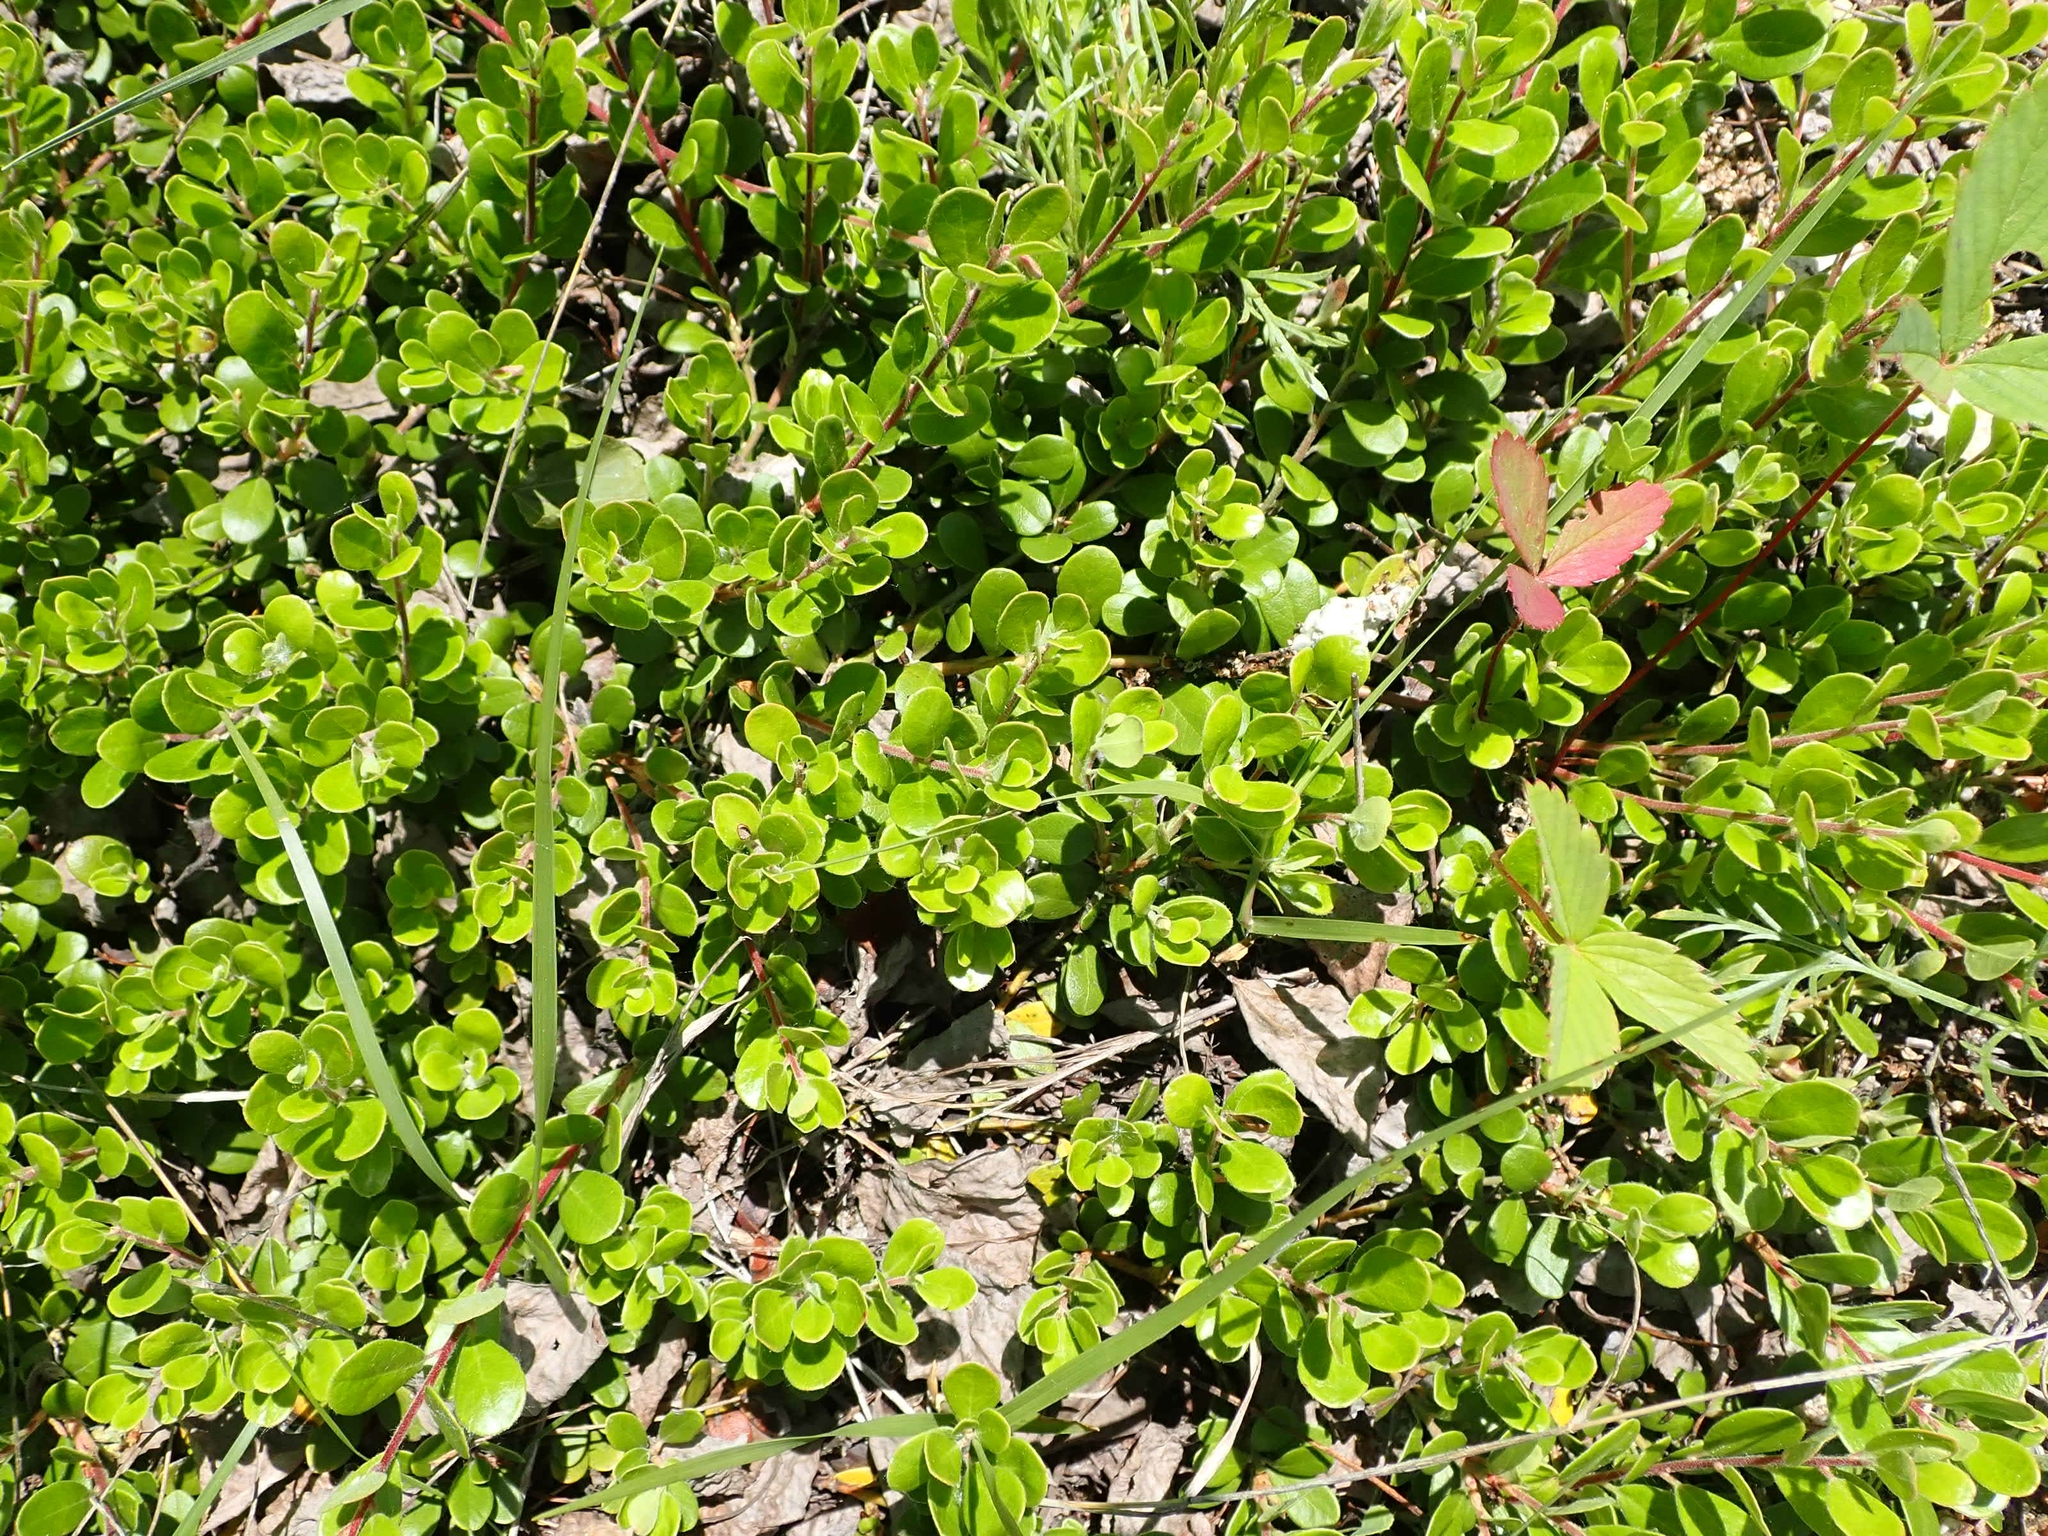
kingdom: Plantae
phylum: Tracheophyta
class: Magnoliopsida
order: Ericales
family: Ericaceae
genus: Arctostaphylos
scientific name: Arctostaphylos uva-ursi
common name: Bearberry
